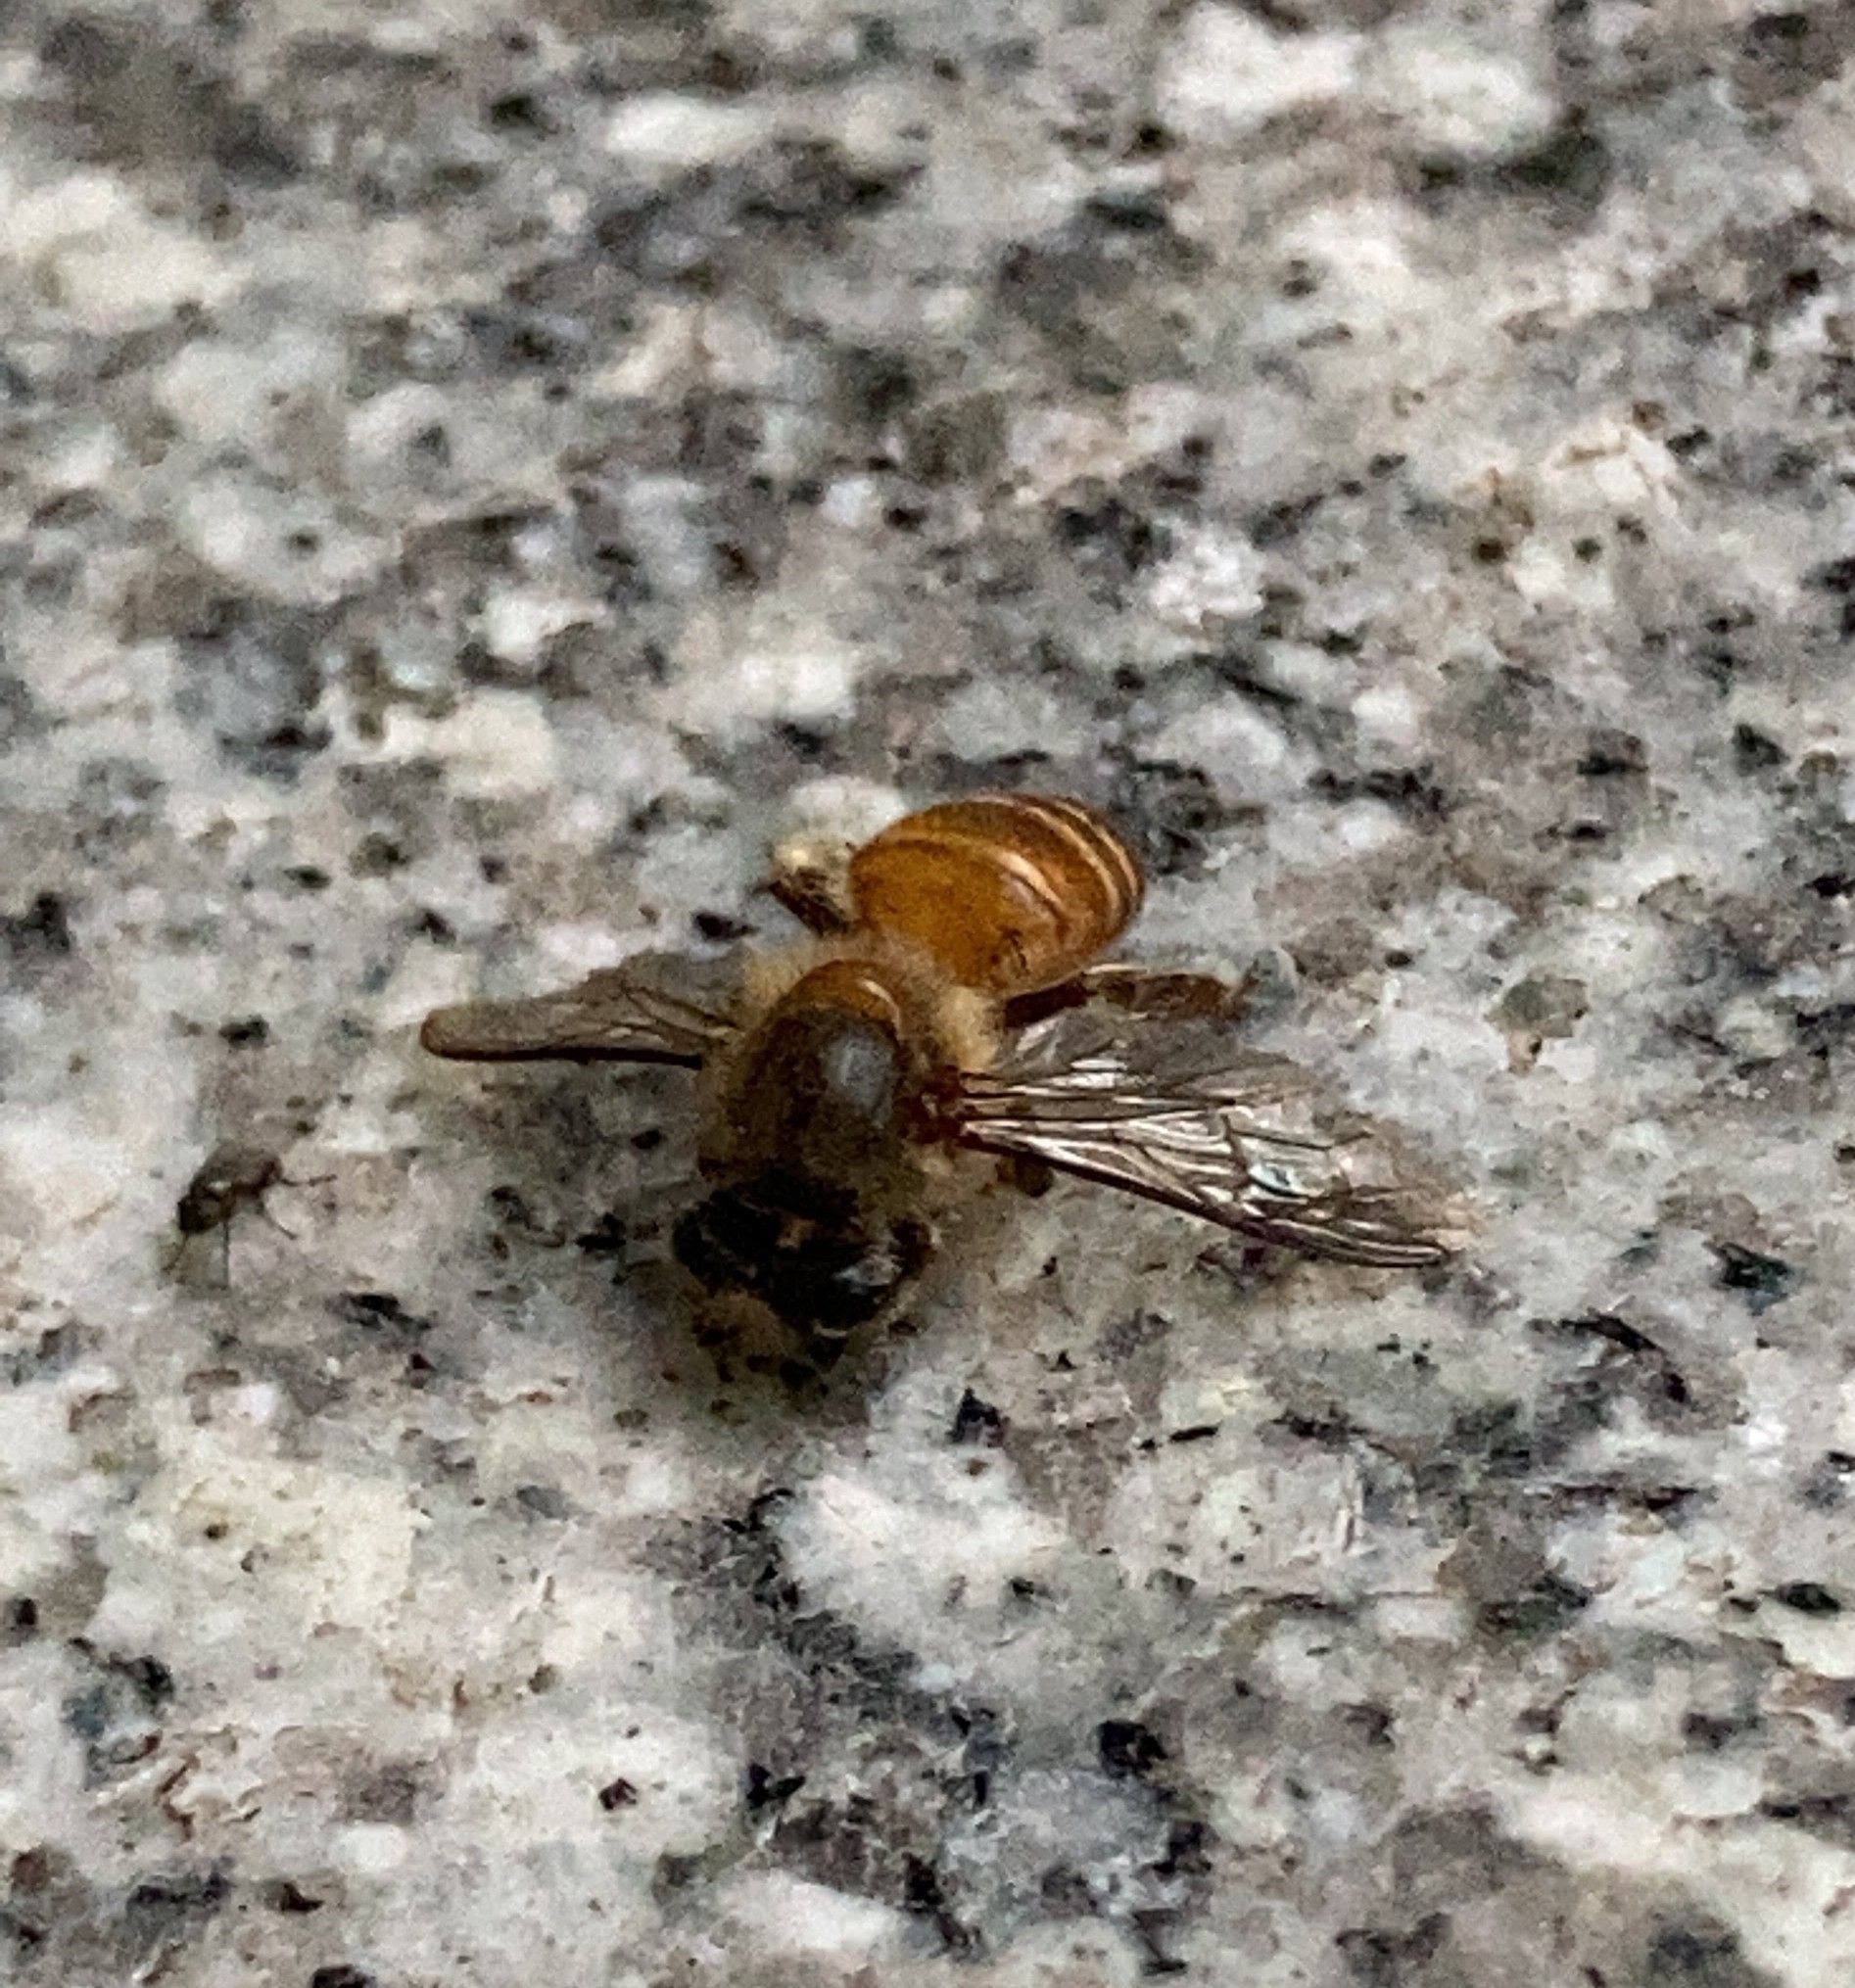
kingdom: Animalia
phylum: Arthropoda
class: Insecta
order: Hymenoptera
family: Apidae
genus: Apis
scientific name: Apis cerana
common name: Honey bee
